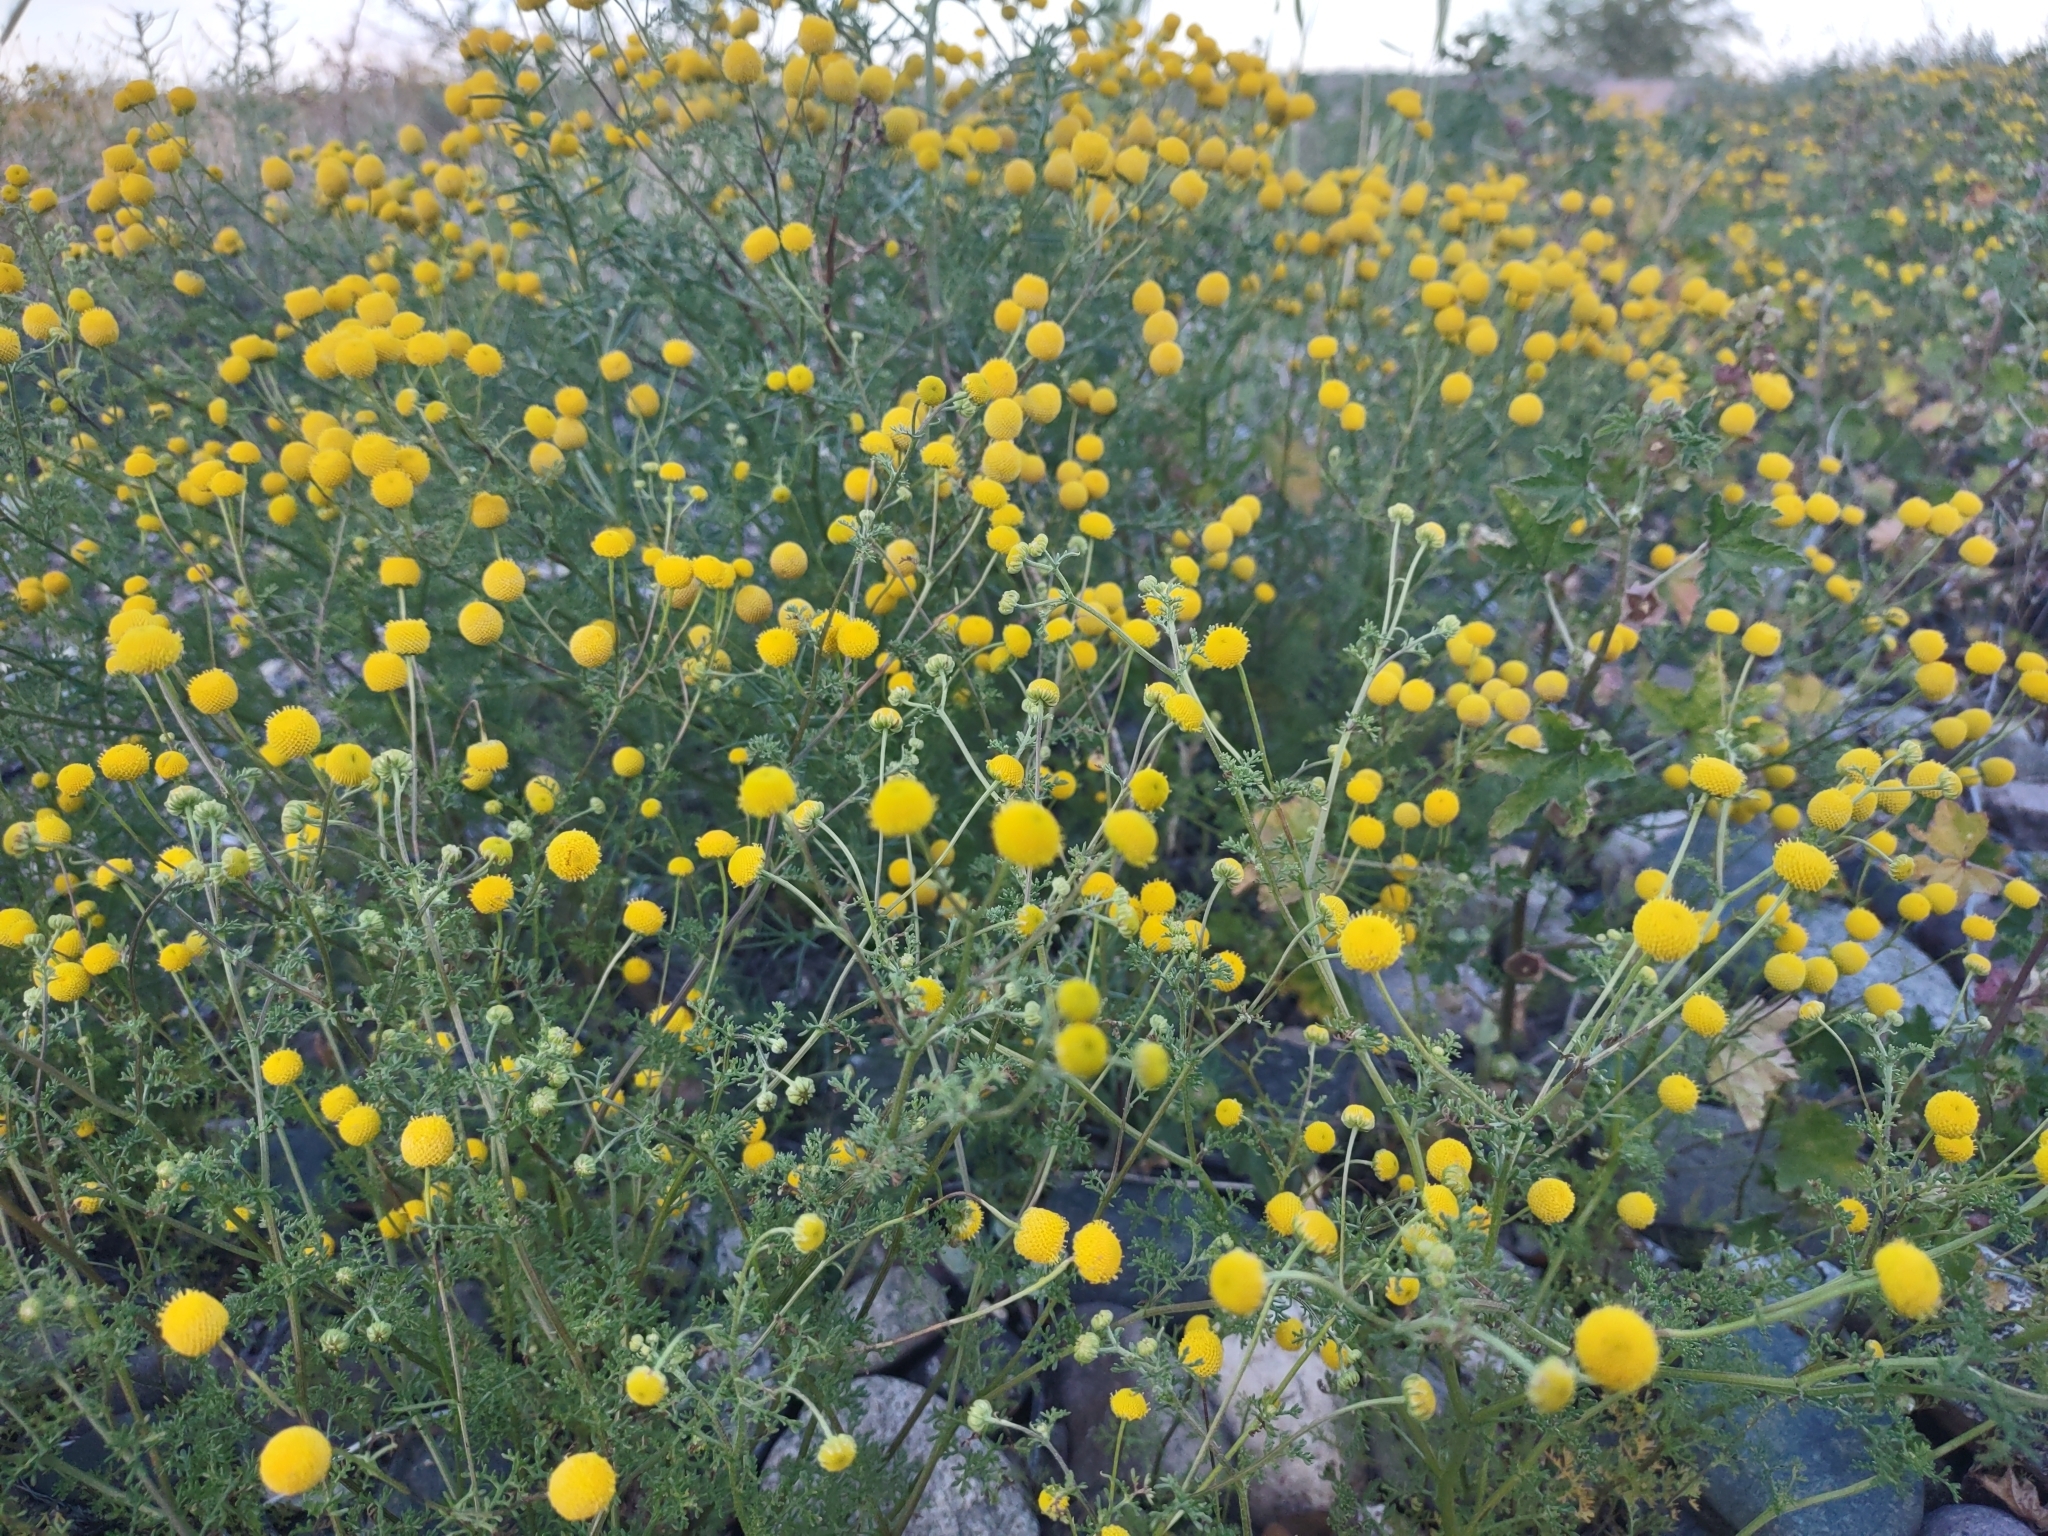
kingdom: Plantae
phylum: Tracheophyta
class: Magnoliopsida
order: Asterales
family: Asteraceae
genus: Oncosiphon
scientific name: Oncosiphon pilulifer
